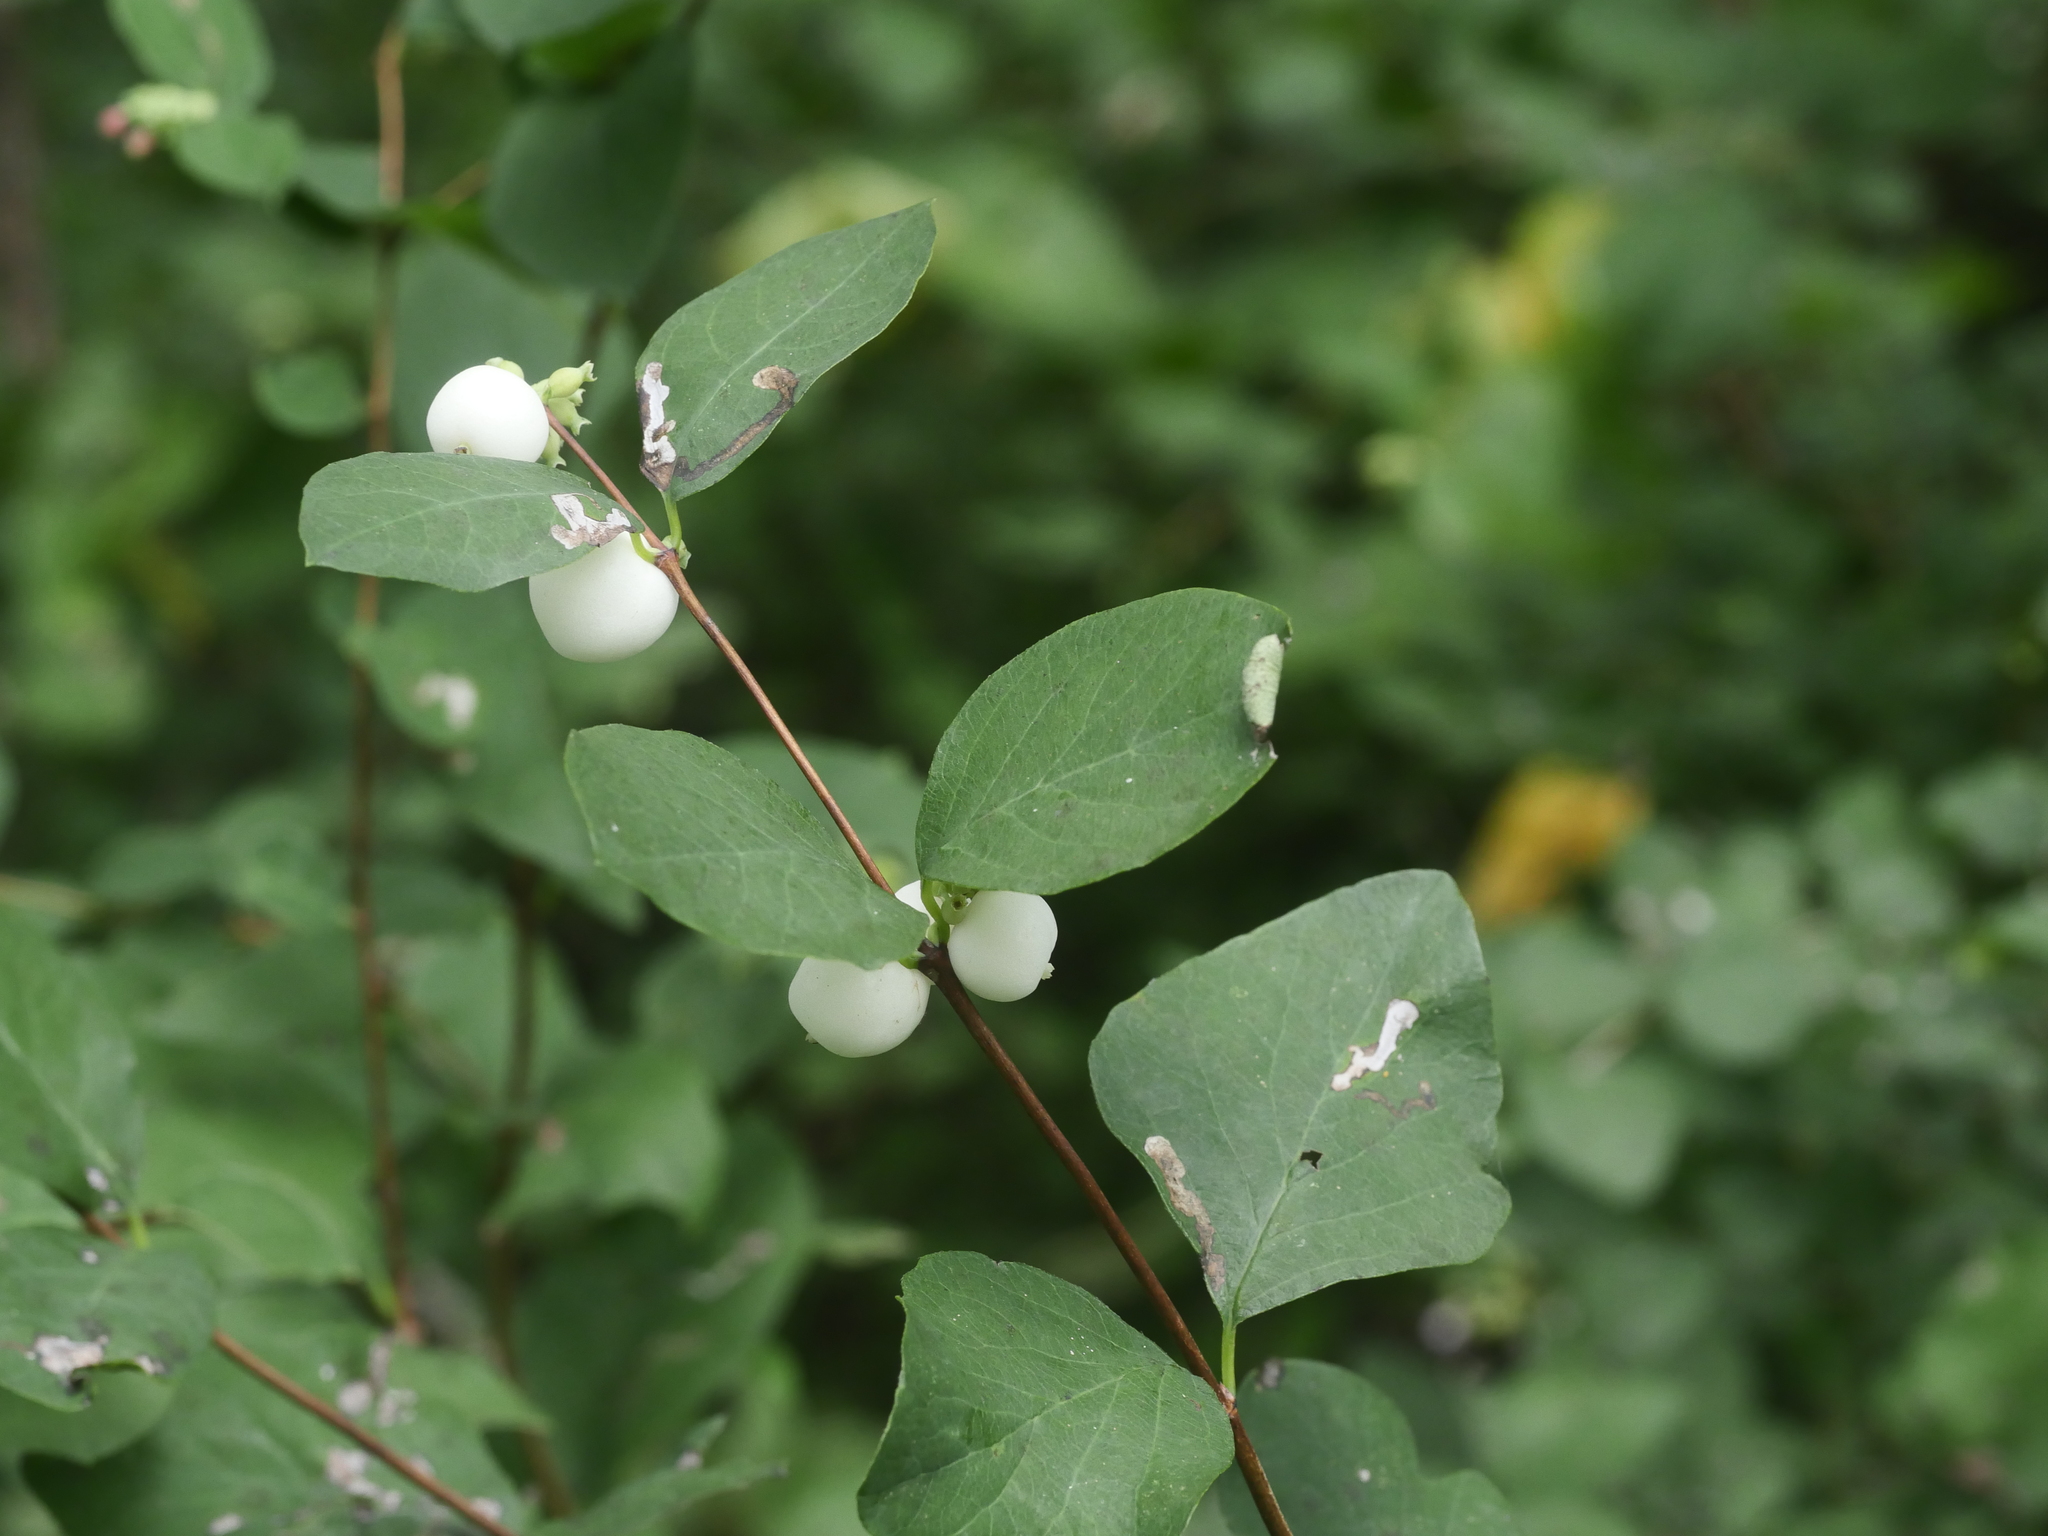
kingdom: Plantae
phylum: Tracheophyta
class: Magnoliopsida
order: Dipsacales
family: Caprifoliaceae
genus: Symphoricarpos
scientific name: Symphoricarpos albus
